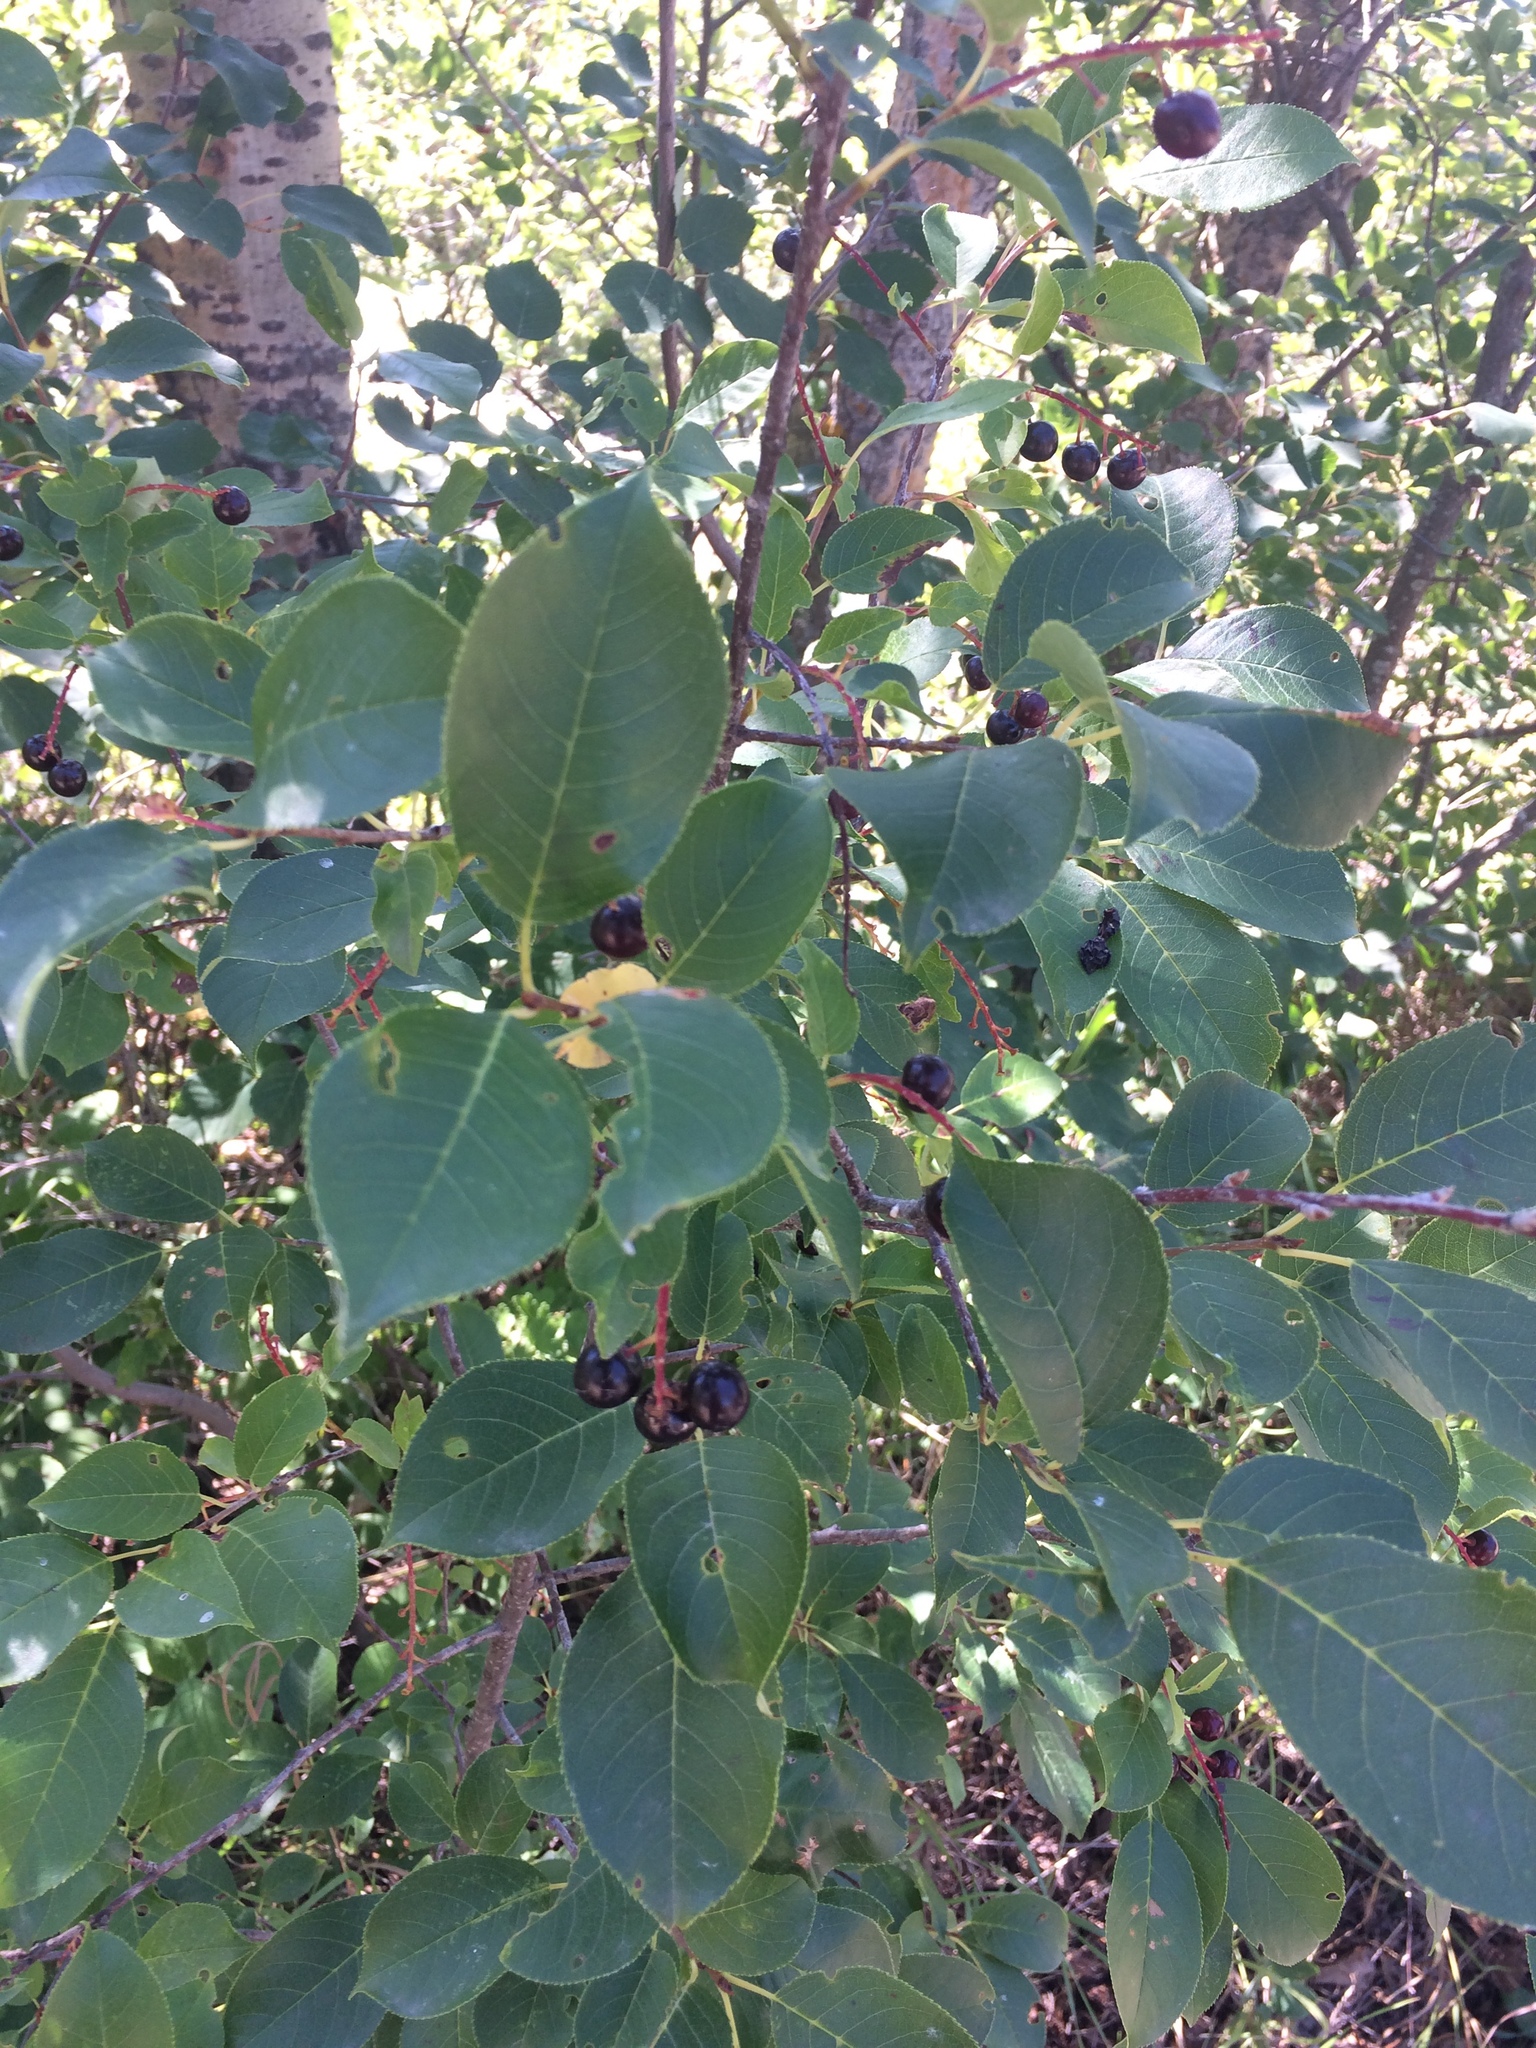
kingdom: Plantae
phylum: Tracheophyta
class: Magnoliopsida
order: Rosales
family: Rosaceae
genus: Prunus
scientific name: Prunus virginiana
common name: Chokecherry
